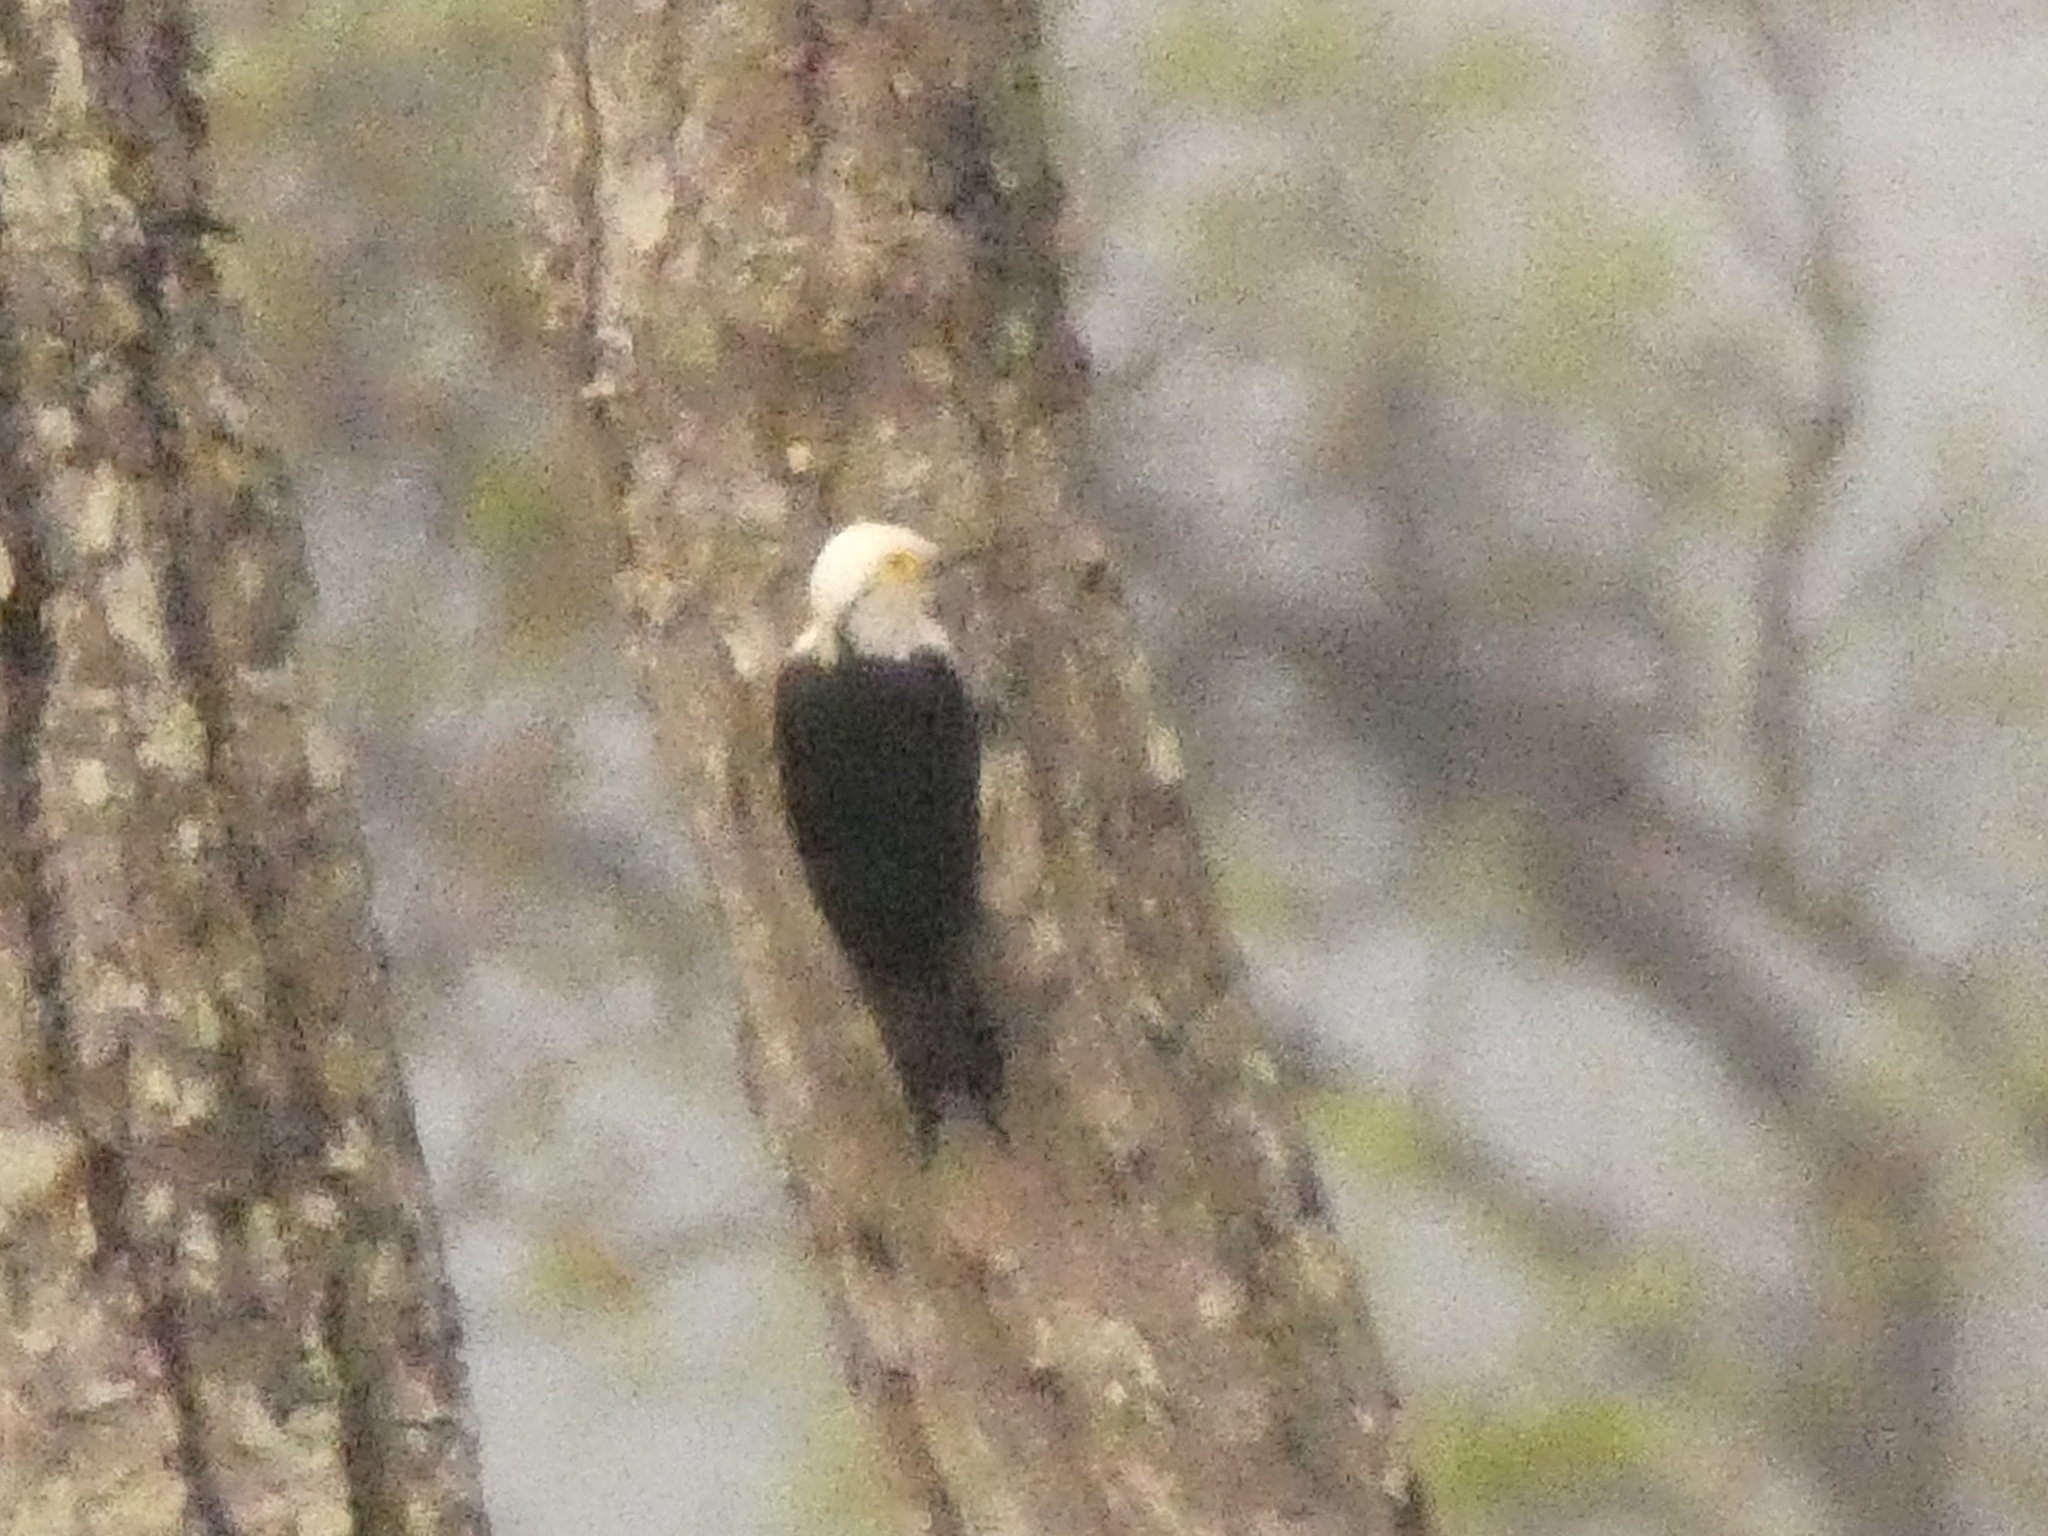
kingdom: Animalia
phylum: Chordata
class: Aves
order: Piciformes
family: Picidae
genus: Melanerpes
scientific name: Melanerpes candidus
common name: White woodpecker
